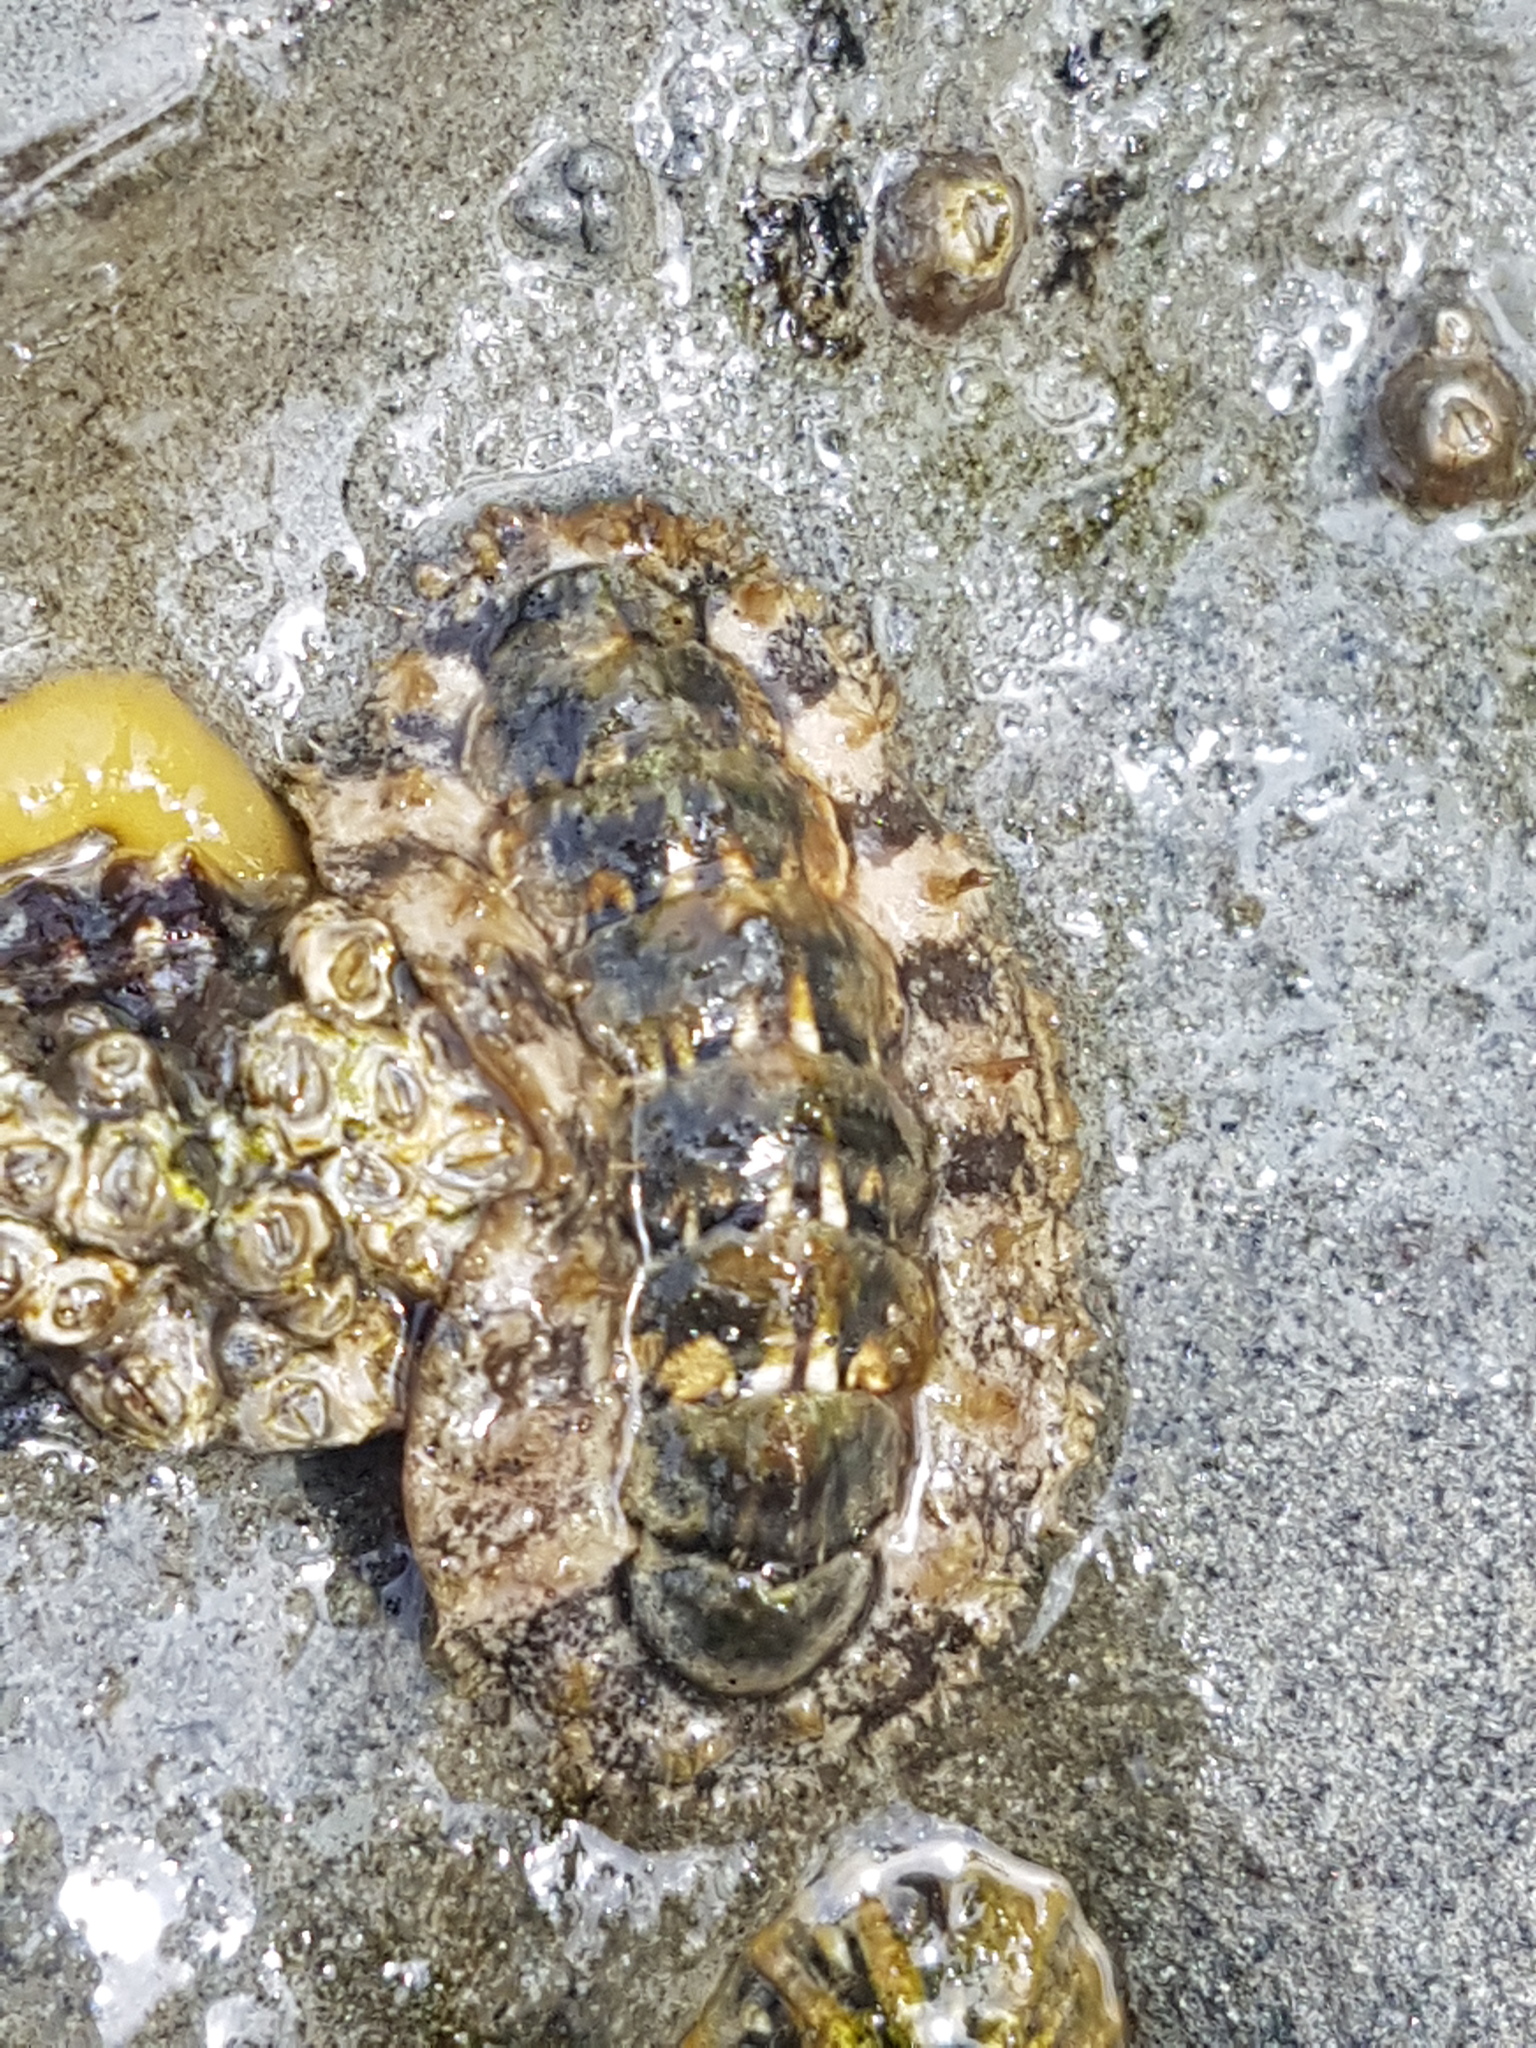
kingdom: Animalia
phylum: Mollusca
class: Polyplacophora
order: Chitonida
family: Mopaliidae
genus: Plaxiphora
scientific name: Plaxiphora caelata
